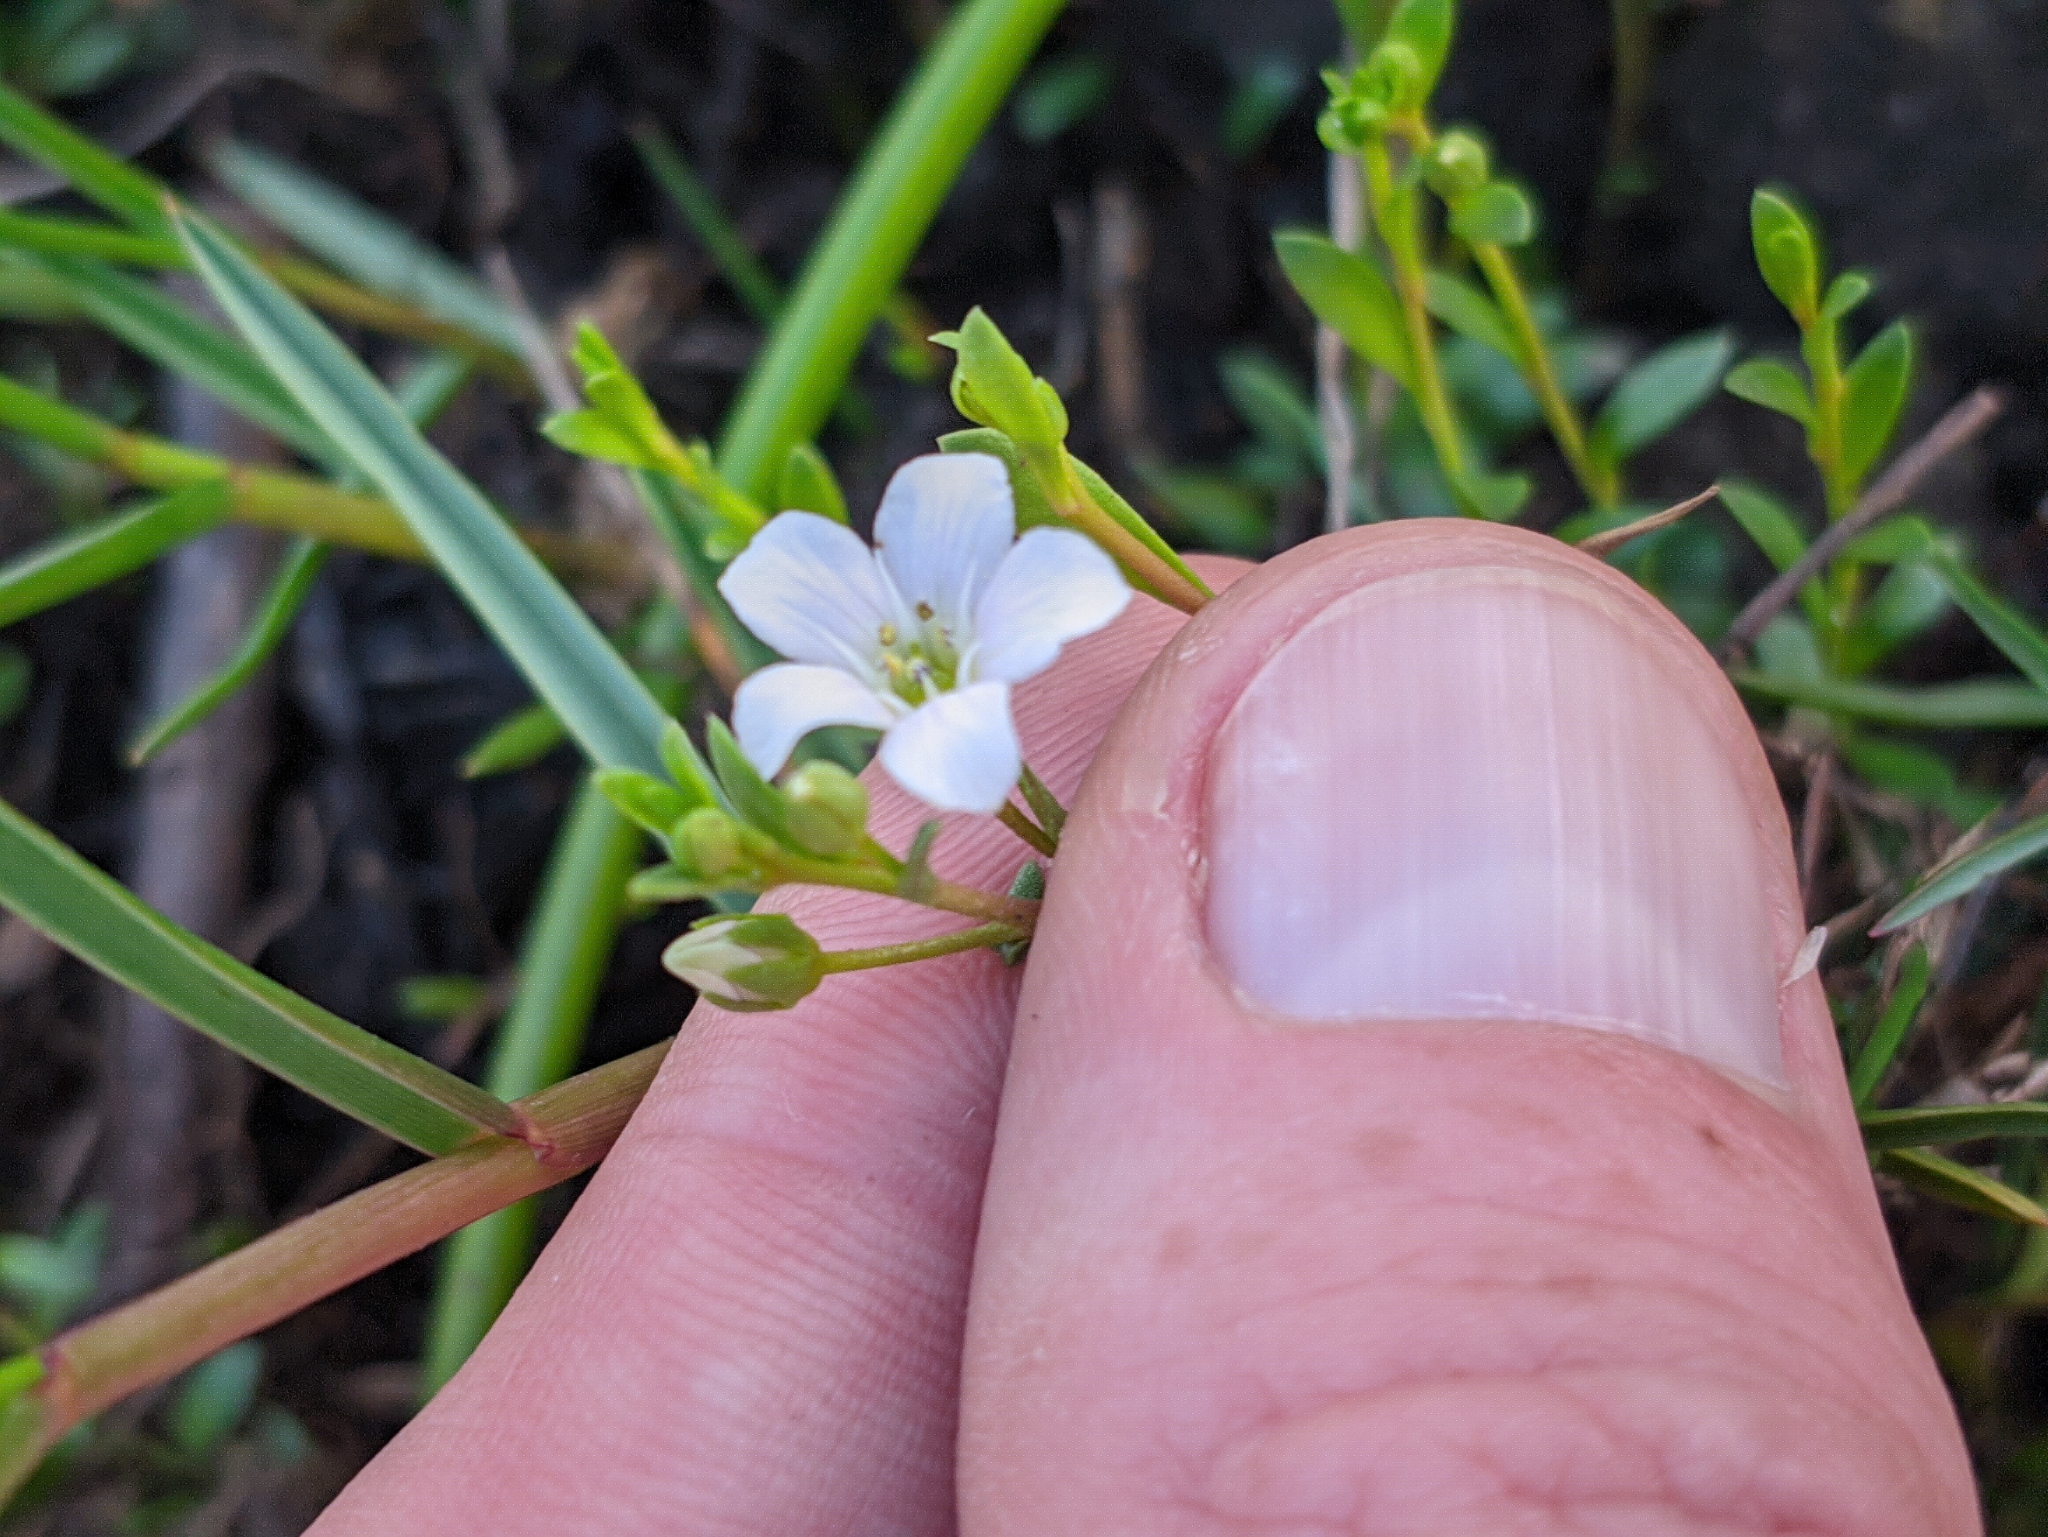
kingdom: Plantae
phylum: Tracheophyta
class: Magnoliopsida
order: Ericales
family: Primulaceae
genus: Samolus
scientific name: Samolus repens
